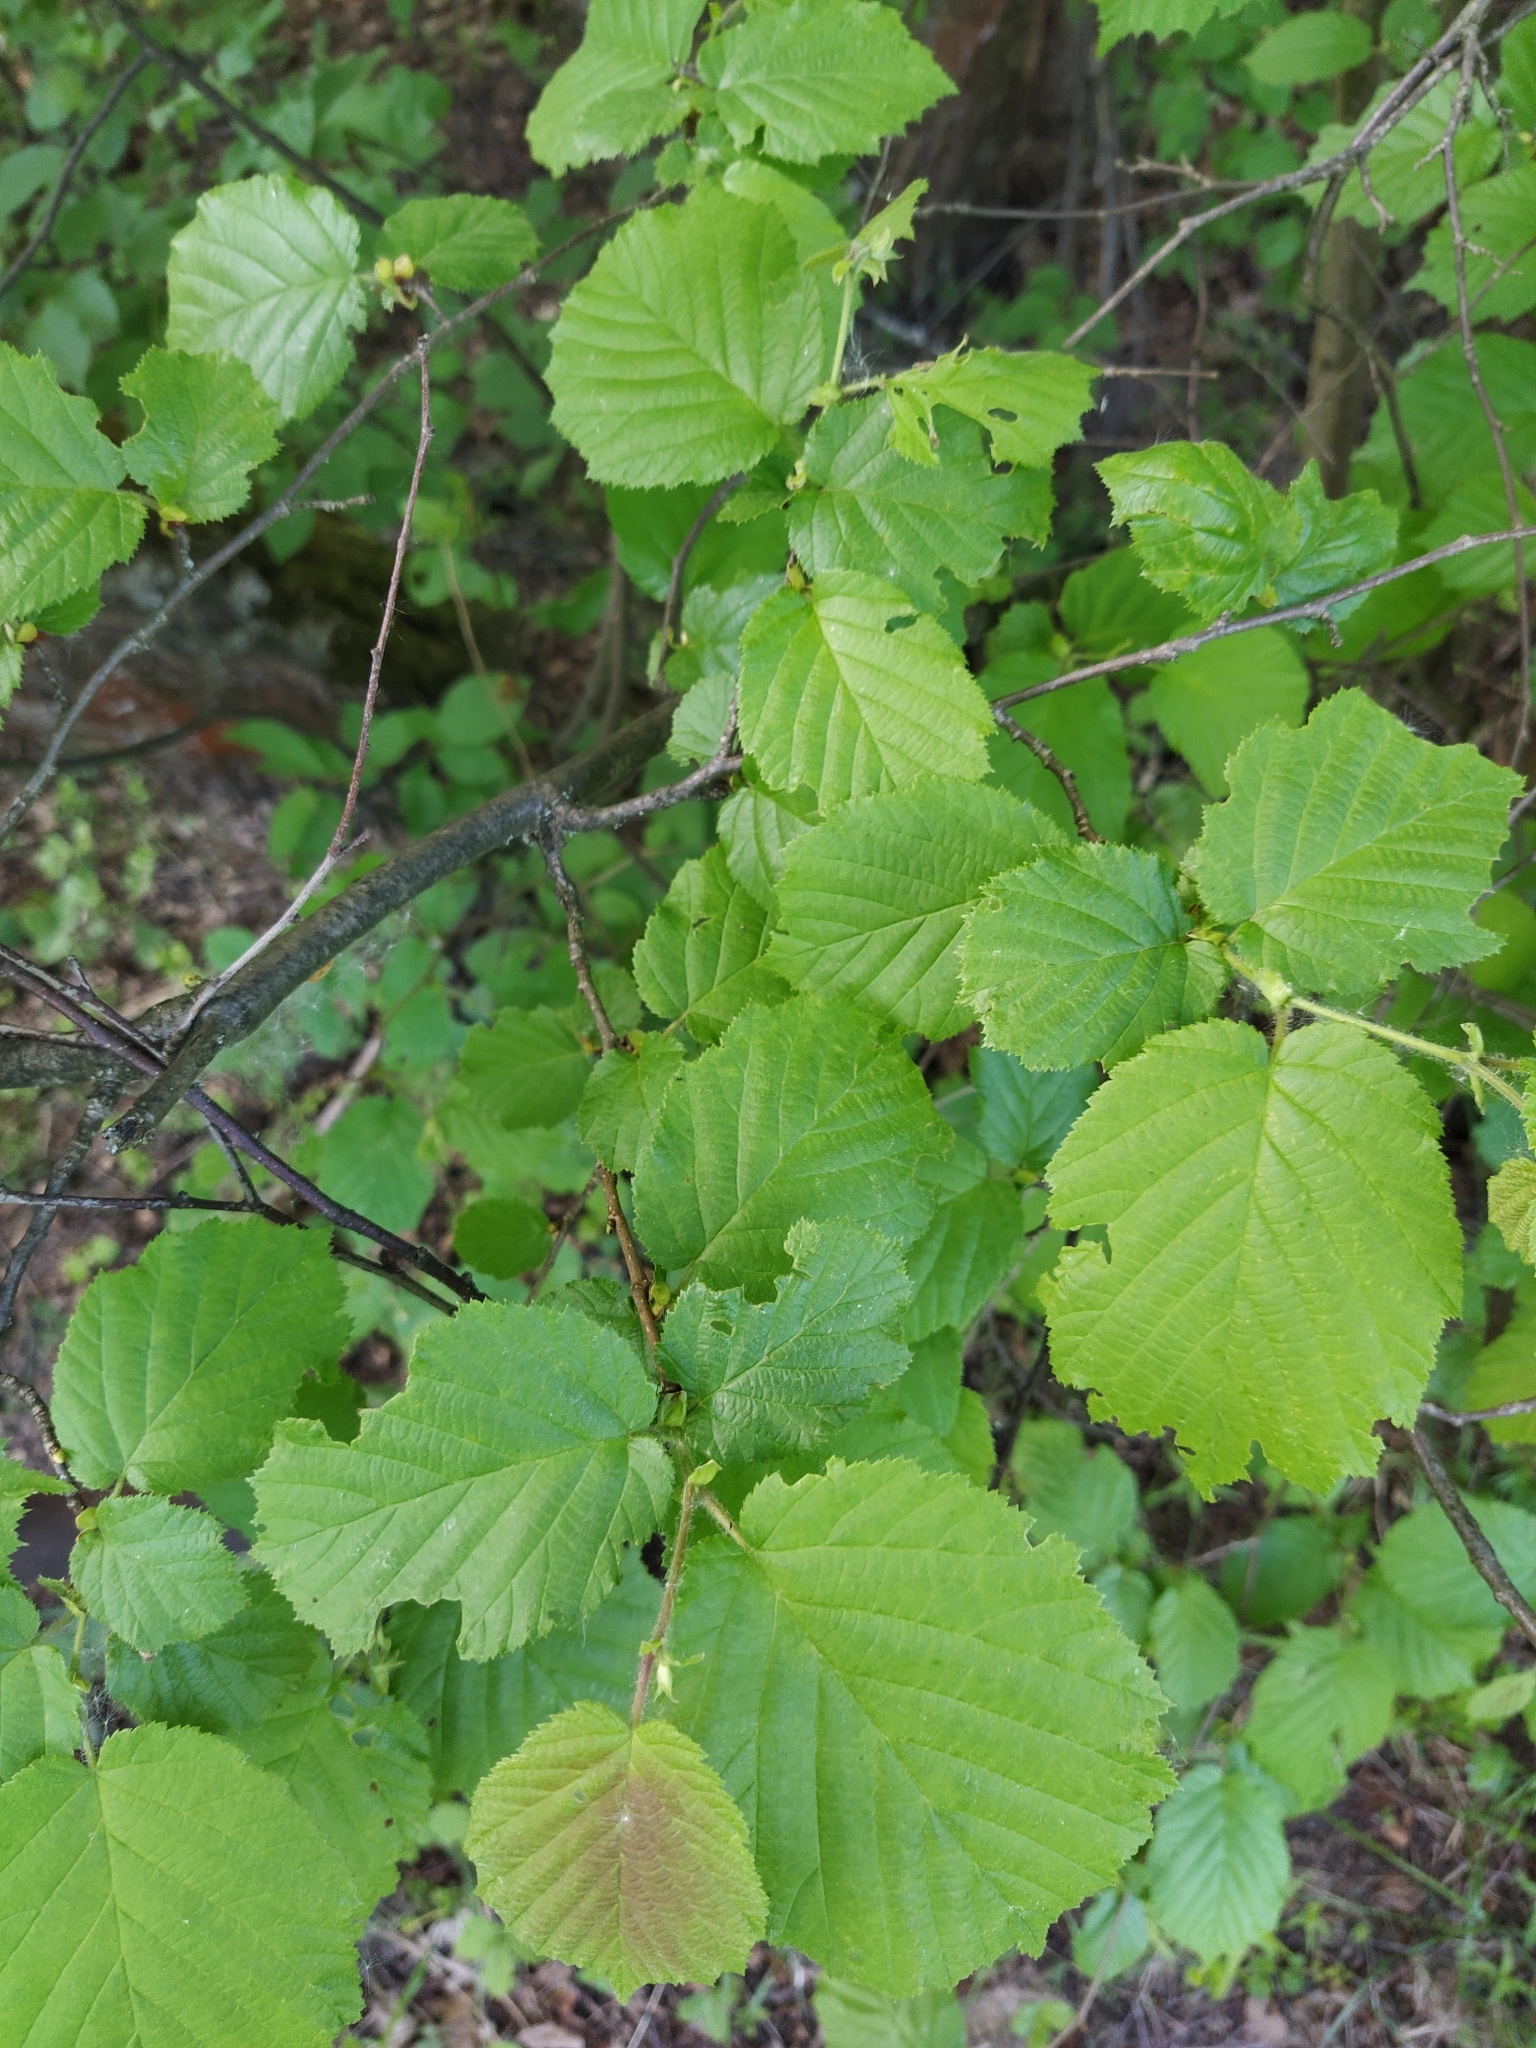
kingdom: Plantae
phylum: Tracheophyta
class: Magnoliopsida
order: Fagales
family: Betulaceae
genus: Corylus
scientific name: Corylus avellana
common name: European hazel
